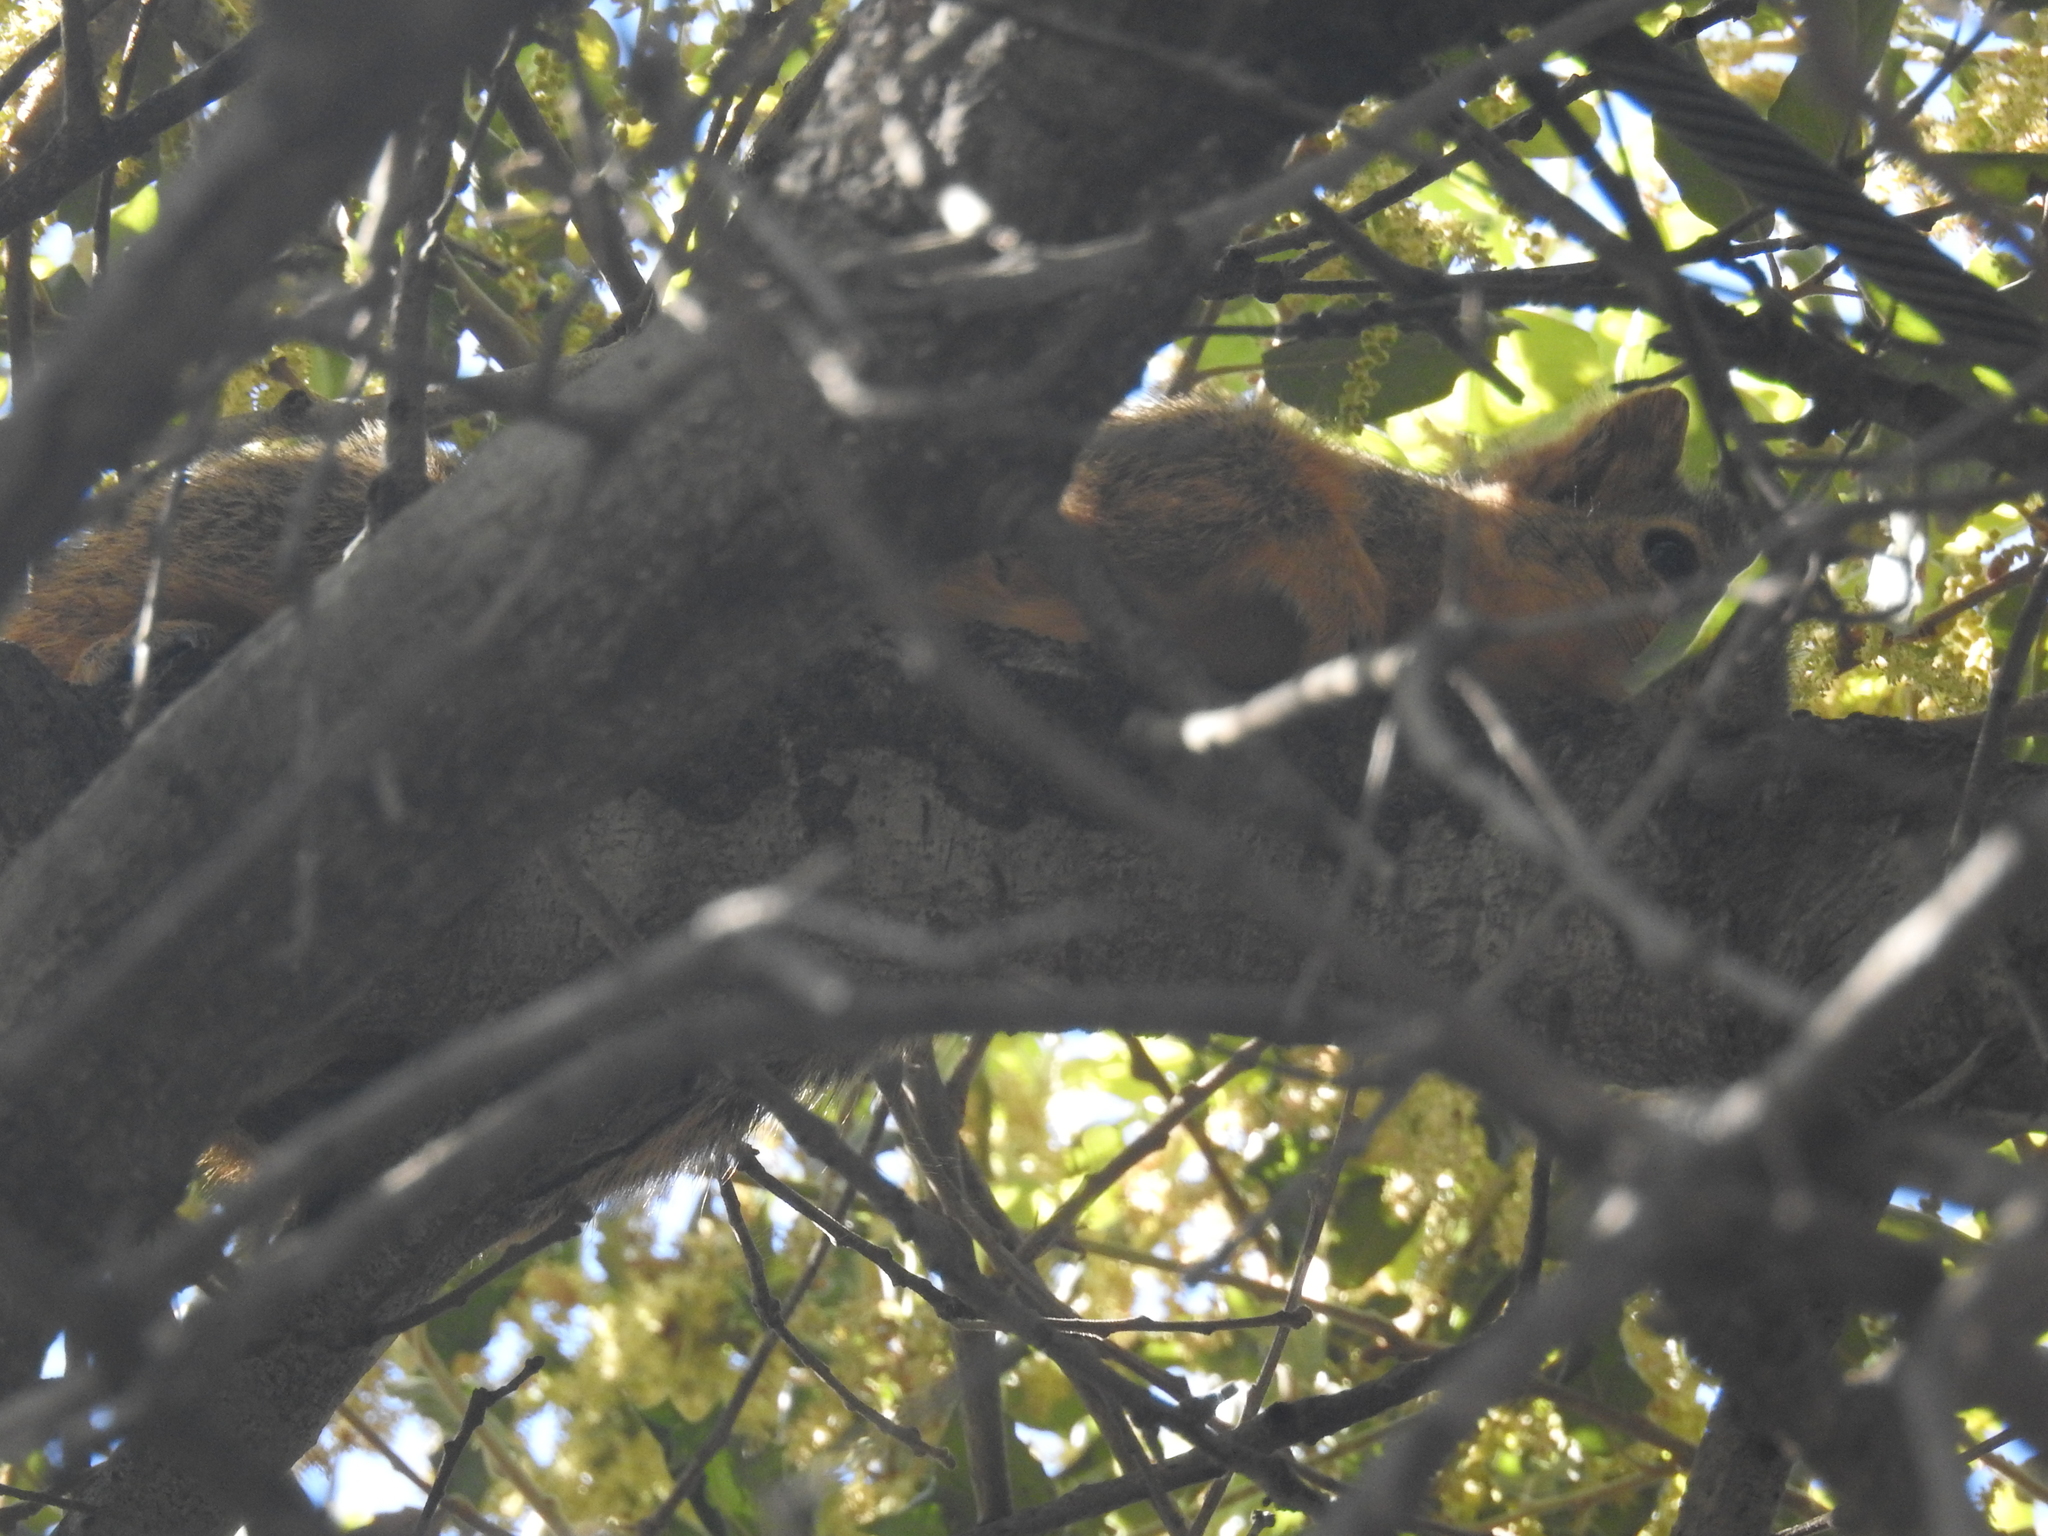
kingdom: Animalia
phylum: Chordata
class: Mammalia
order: Rodentia
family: Sciuridae
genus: Sciurus
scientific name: Sciurus niger
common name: Fox squirrel
